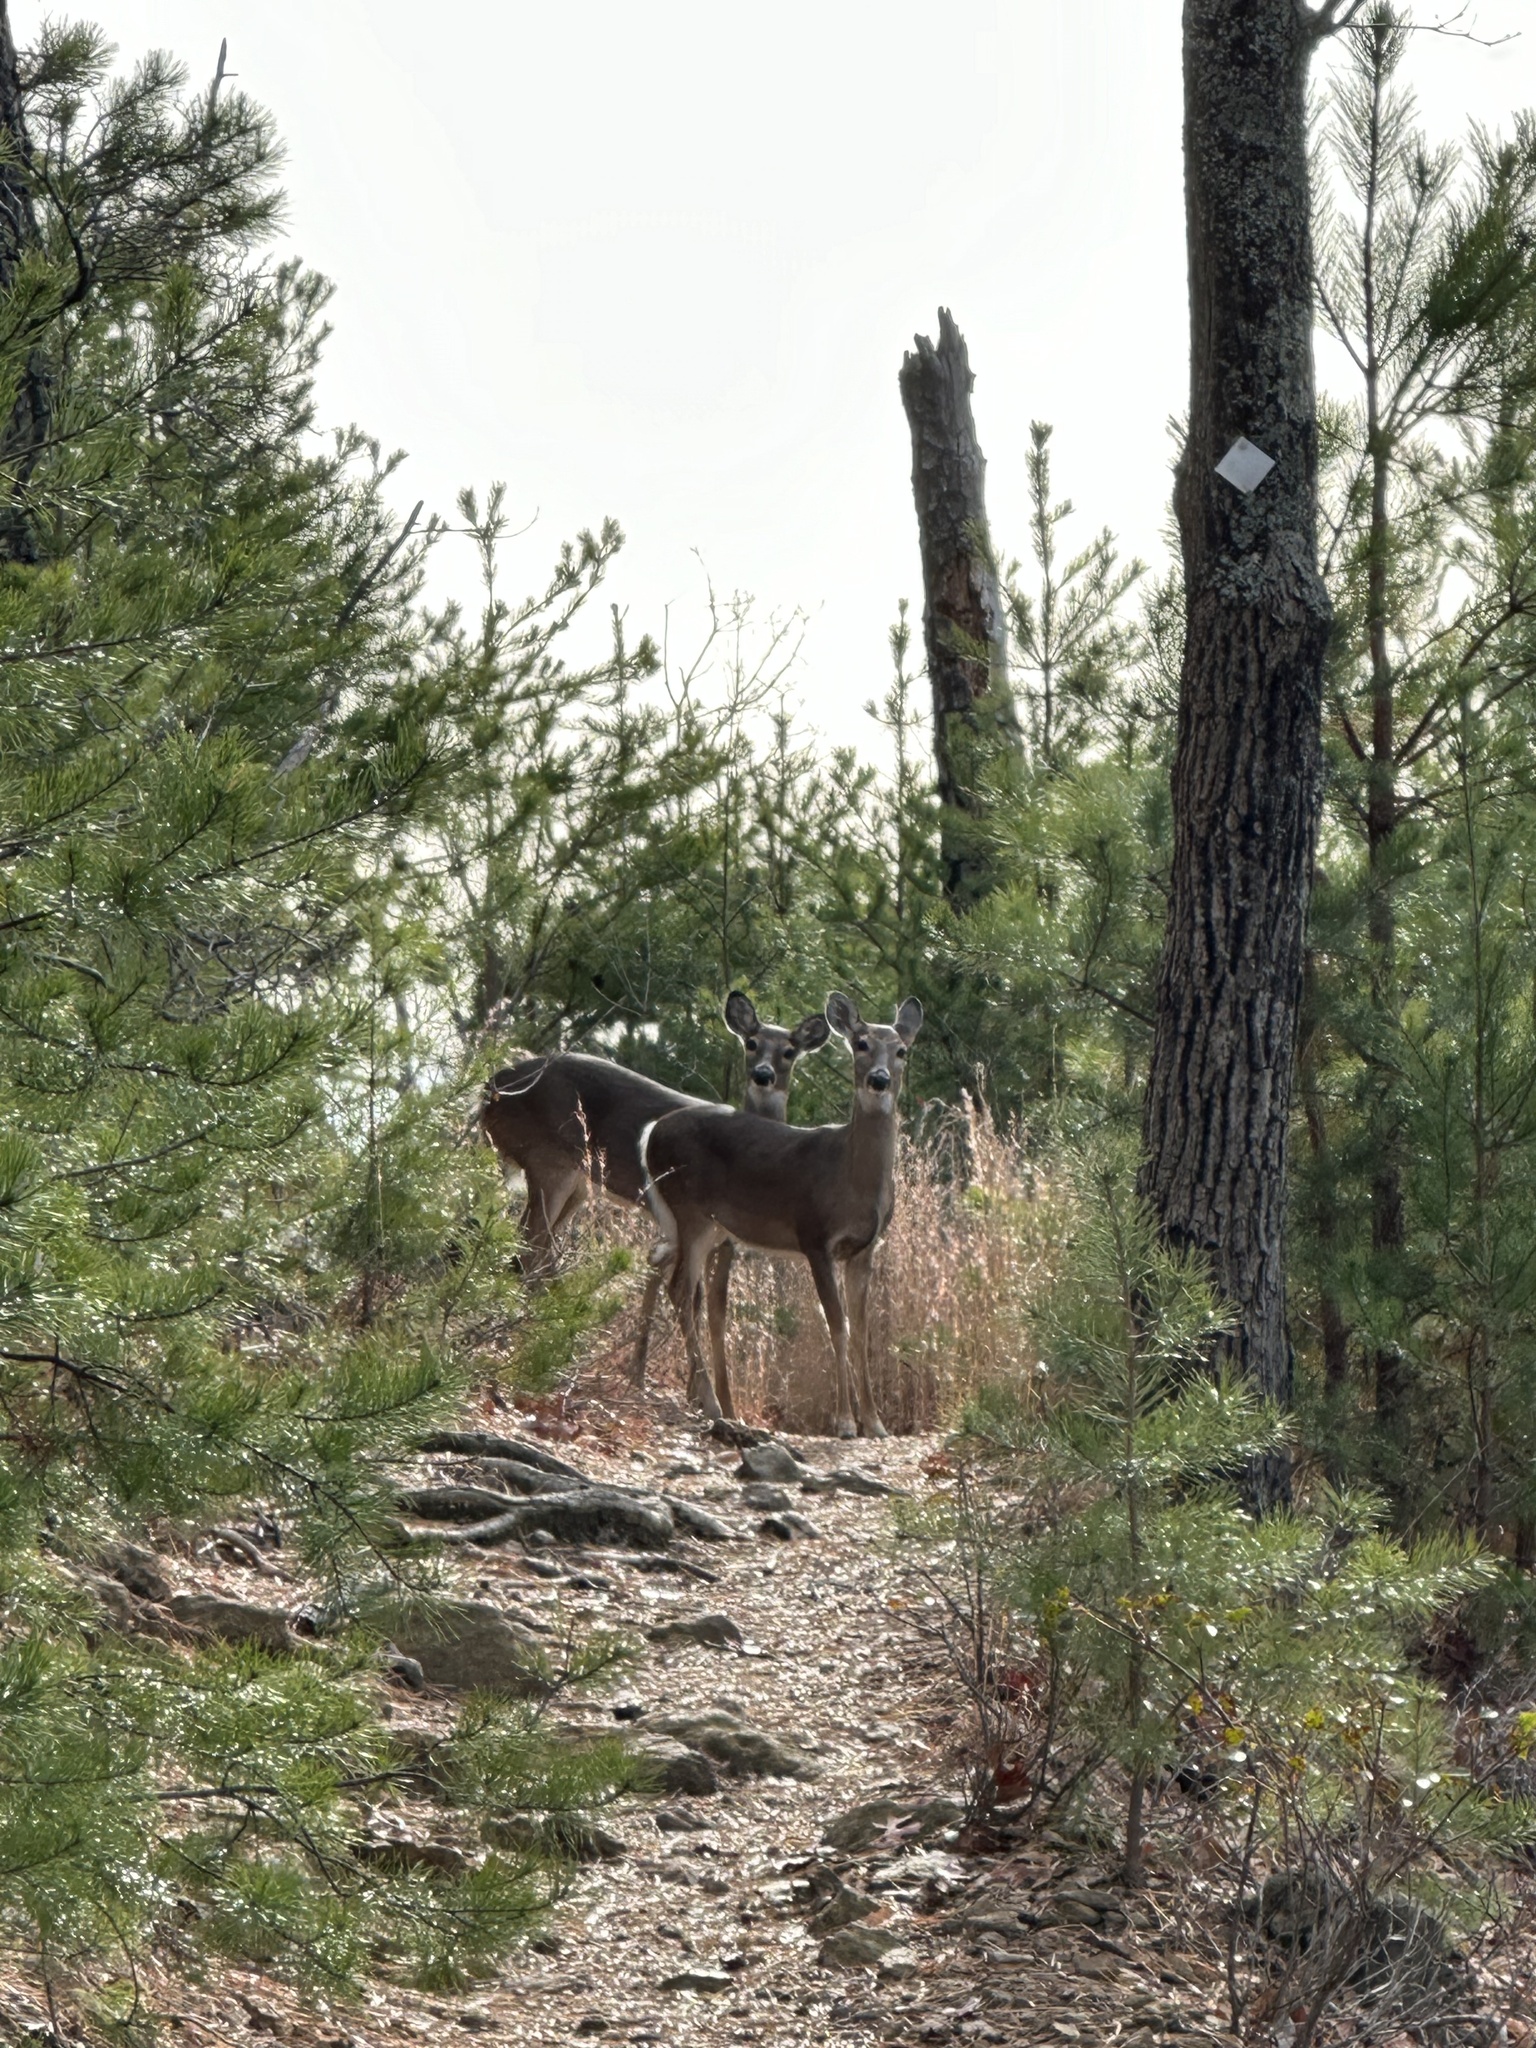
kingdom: Animalia
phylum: Chordata
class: Mammalia
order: Artiodactyla
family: Cervidae
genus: Odocoileus
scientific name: Odocoileus virginianus
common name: White-tailed deer
